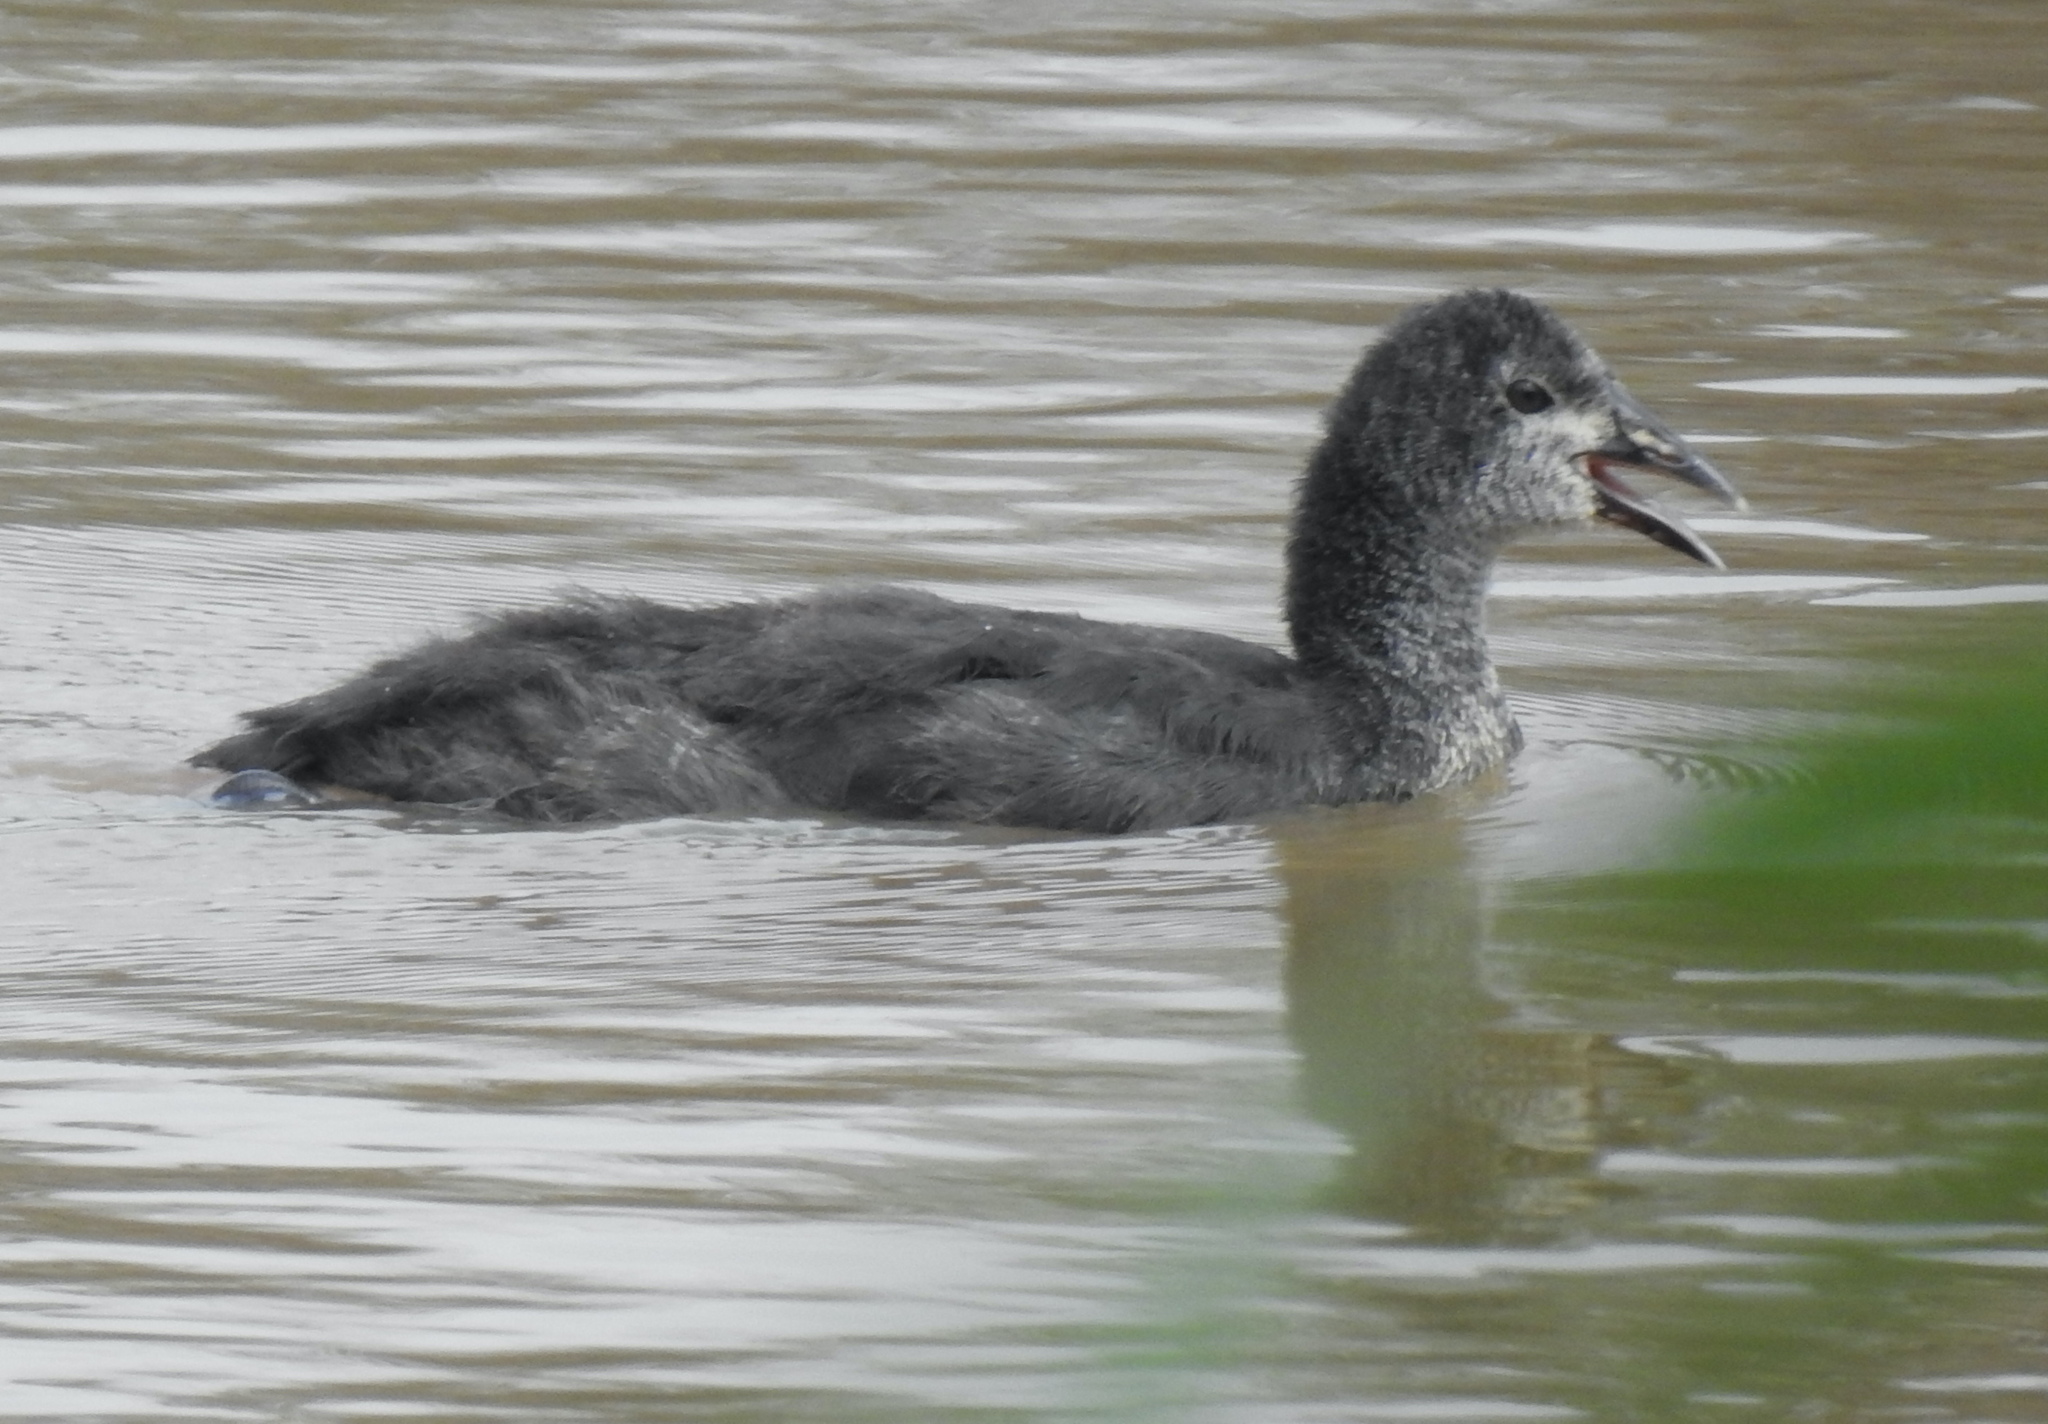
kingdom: Animalia
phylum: Chordata
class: Aves
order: Gruiformes
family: Rallidae
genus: Fulica
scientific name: Fulica cristata
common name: Red-knobbed coot
